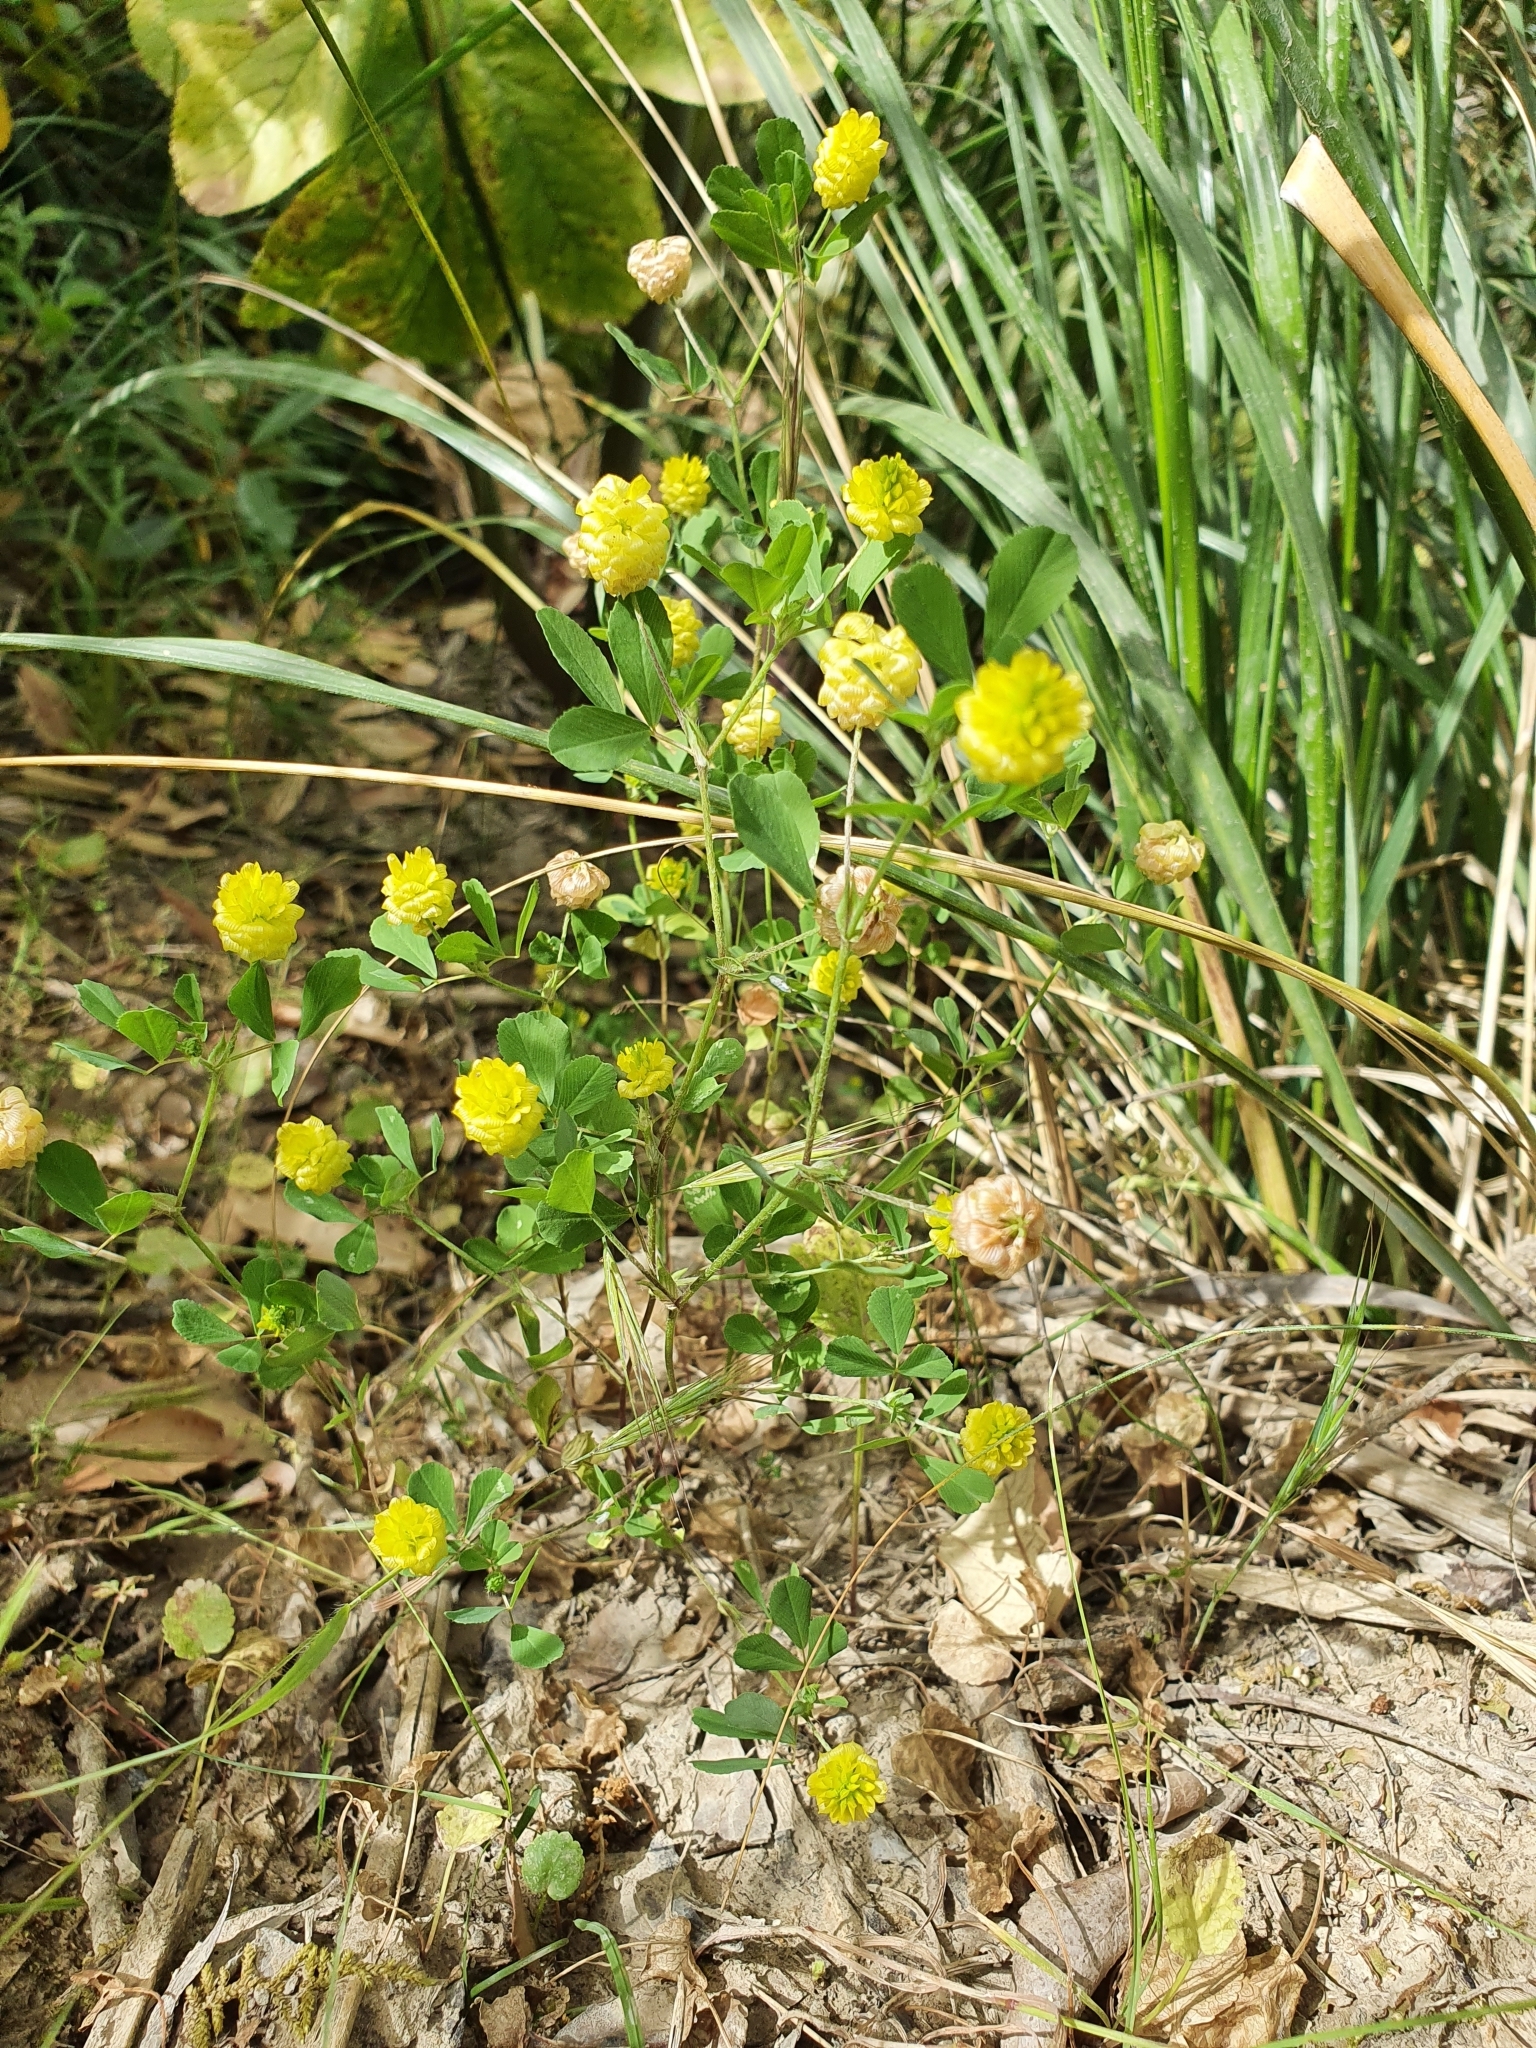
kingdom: Plantae
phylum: Tracheophyta
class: Magnoliopsida
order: Fabales
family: Fabaceae
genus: Trifolium
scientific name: Trifolium campestre
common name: Field clover
